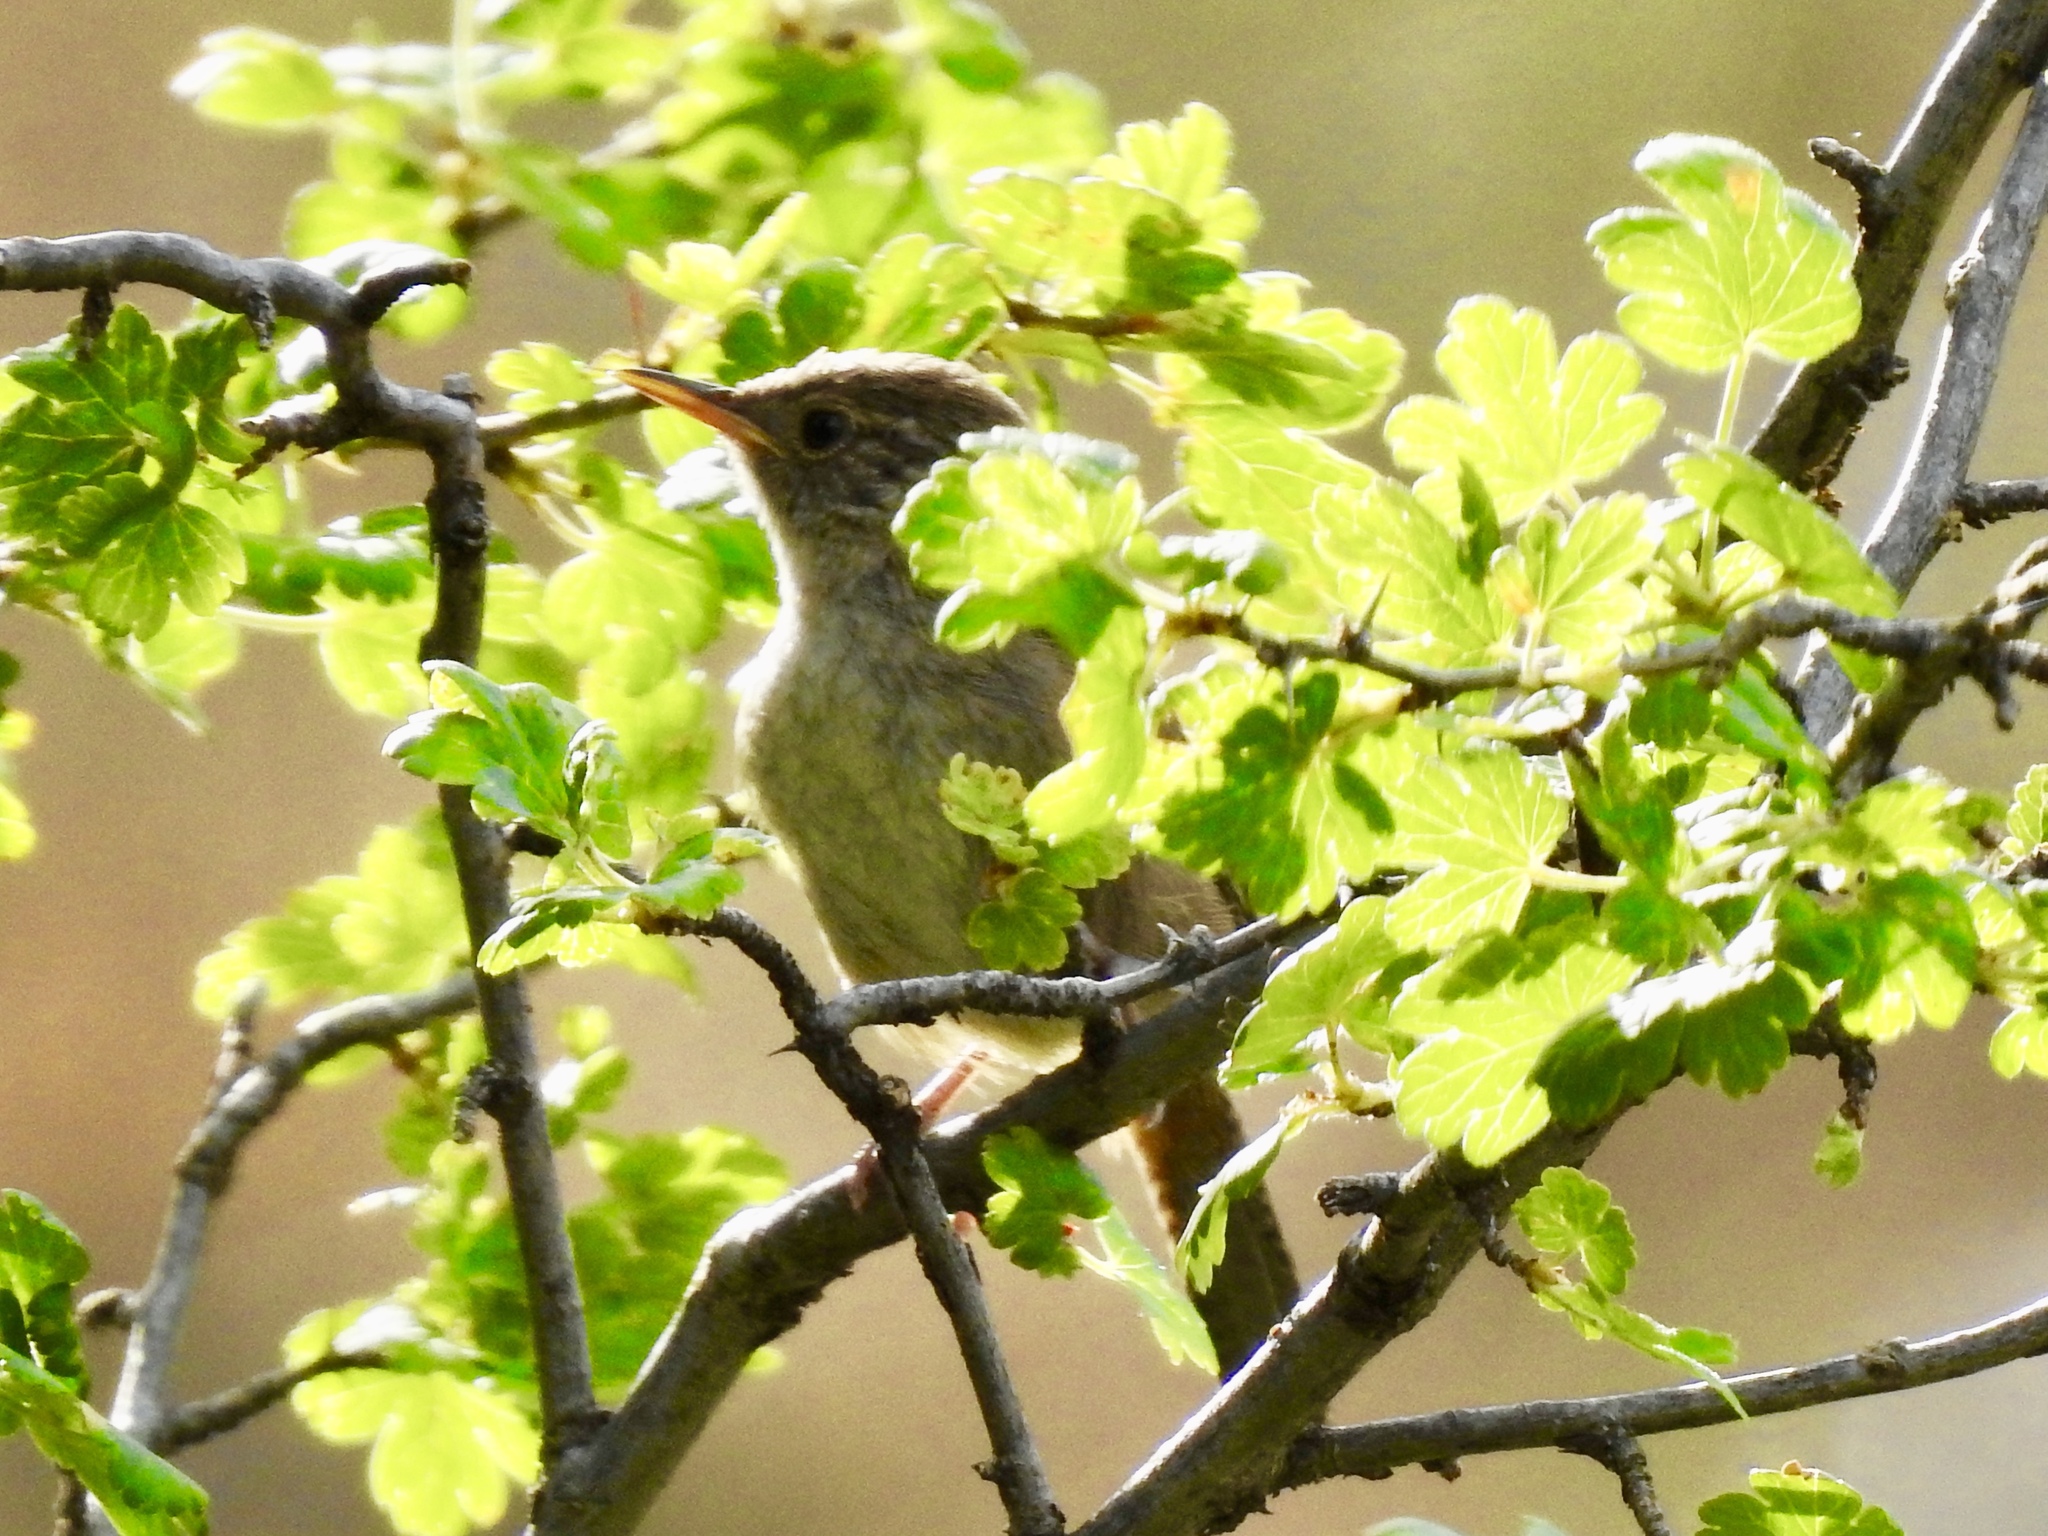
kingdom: Animalia
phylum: Chordata
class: Aves
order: Passeriformes
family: Troglodytidae
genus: Troglodytes
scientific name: Troglodytes aedon
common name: House wren
